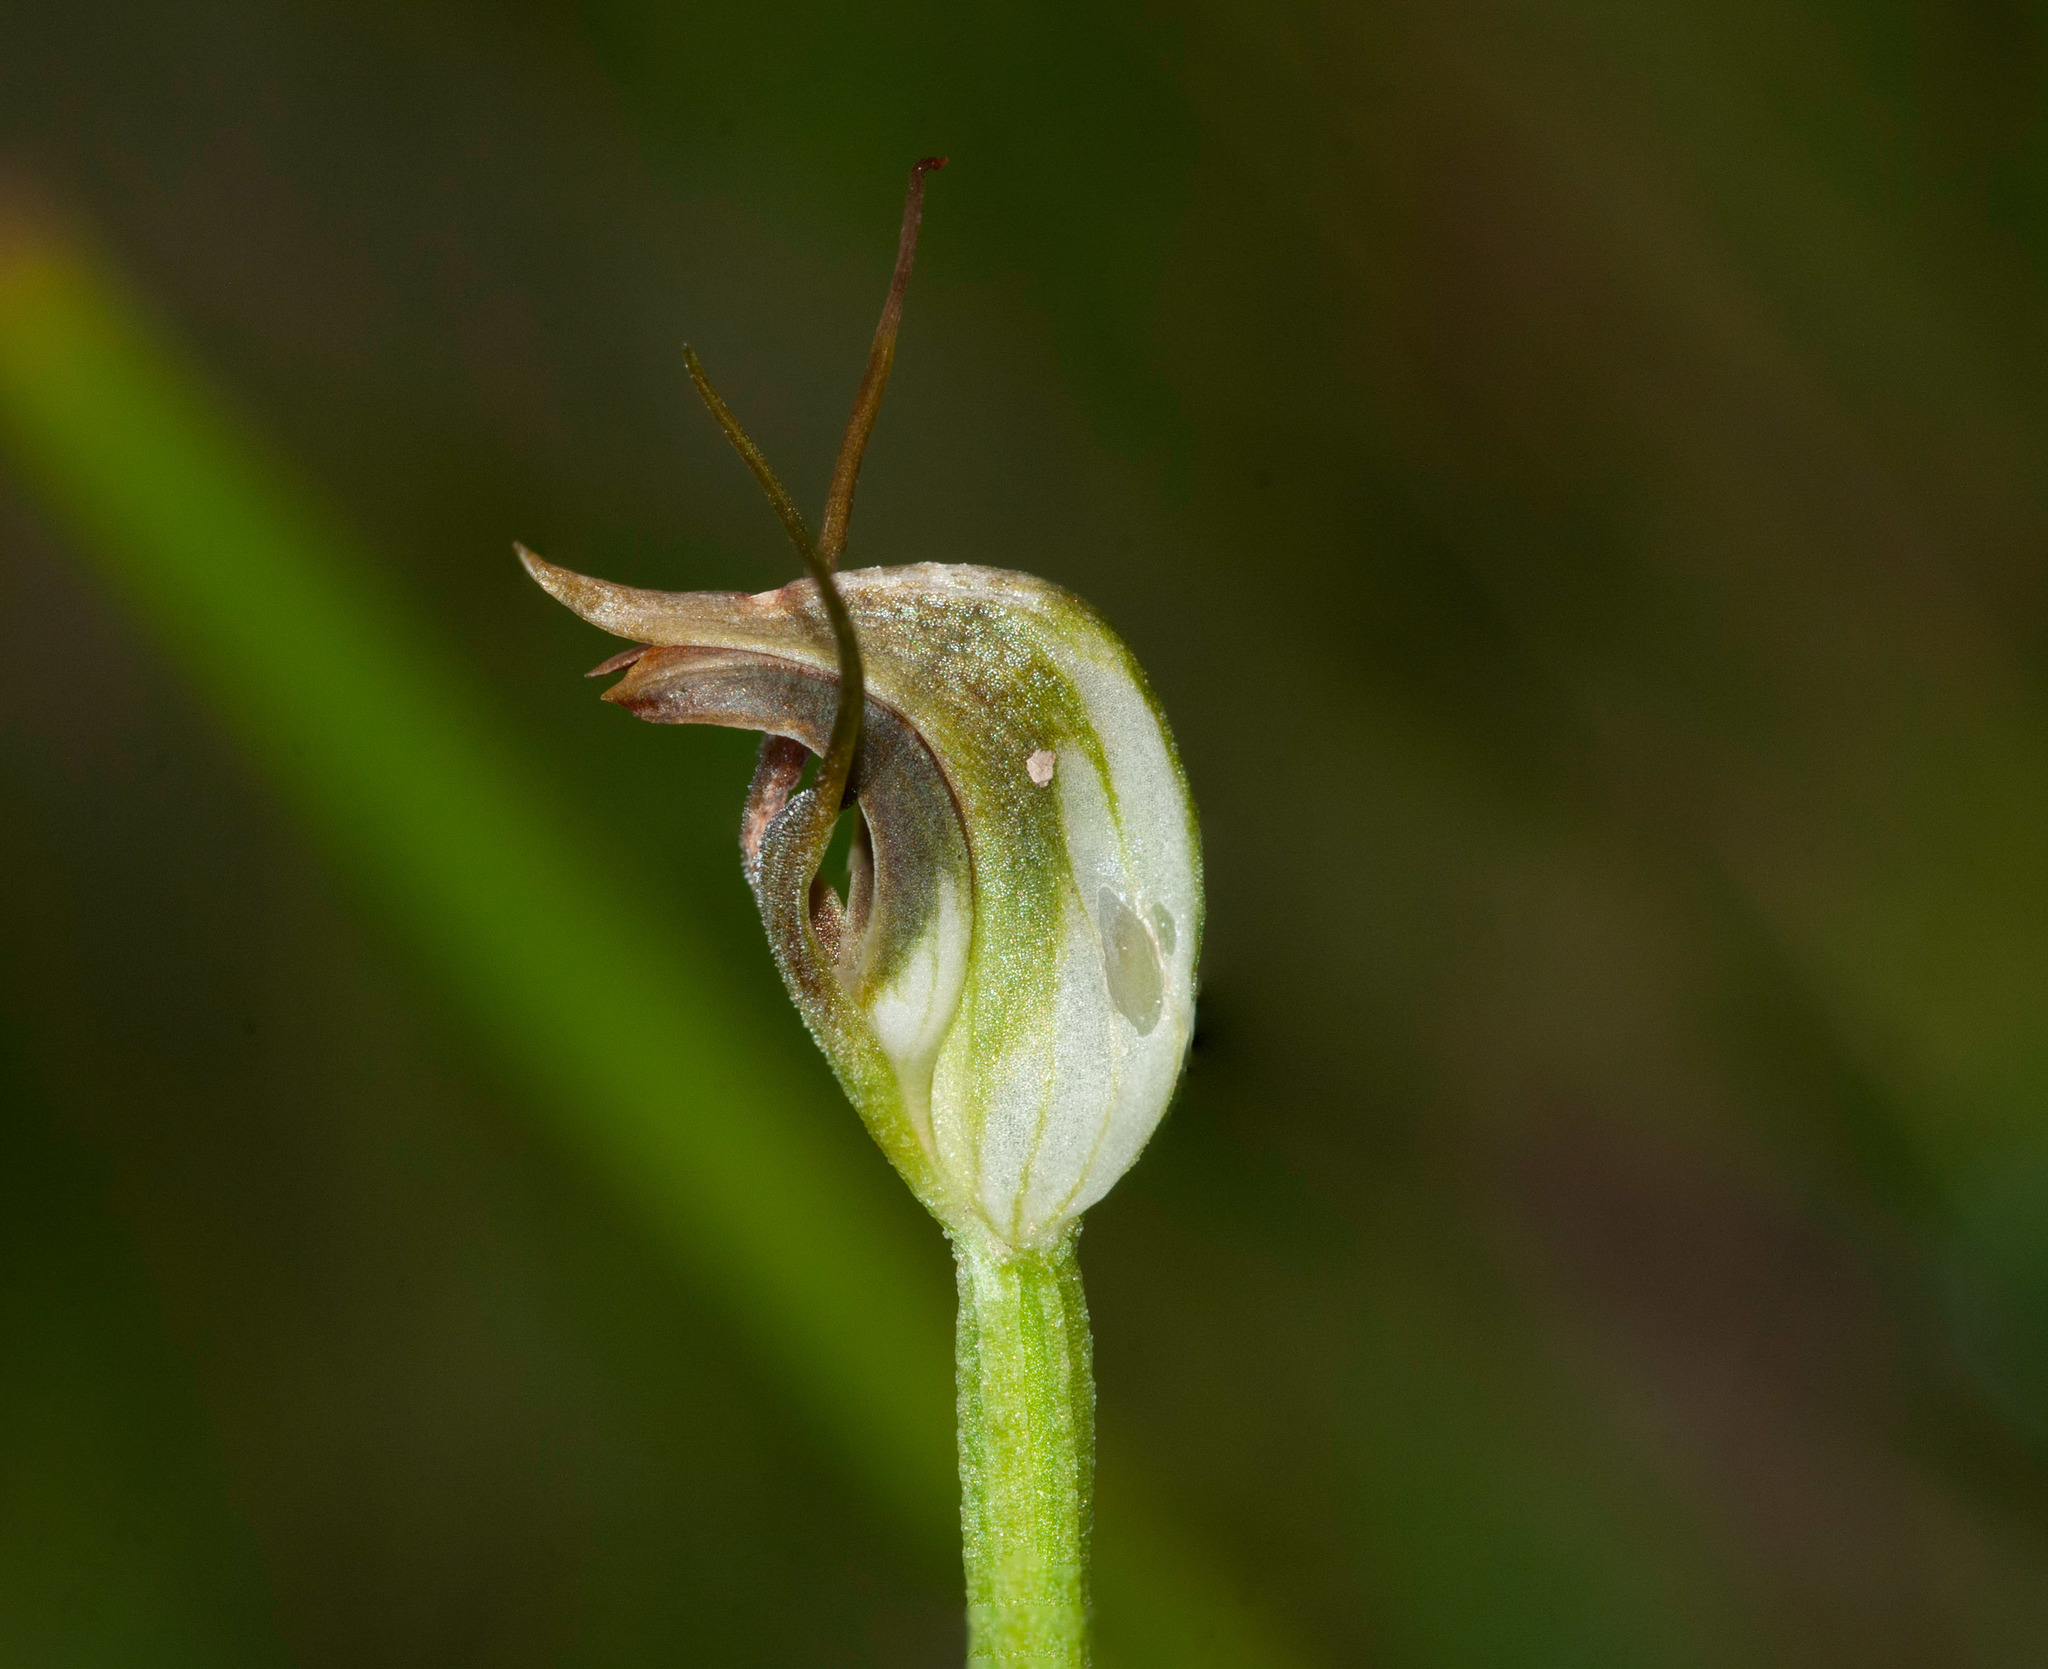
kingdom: Plantae
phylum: Tracheophyta
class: Liliopsida
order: Asparagales
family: Orchidaceae
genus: Pterostylis
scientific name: Pterostylis pedunculata
